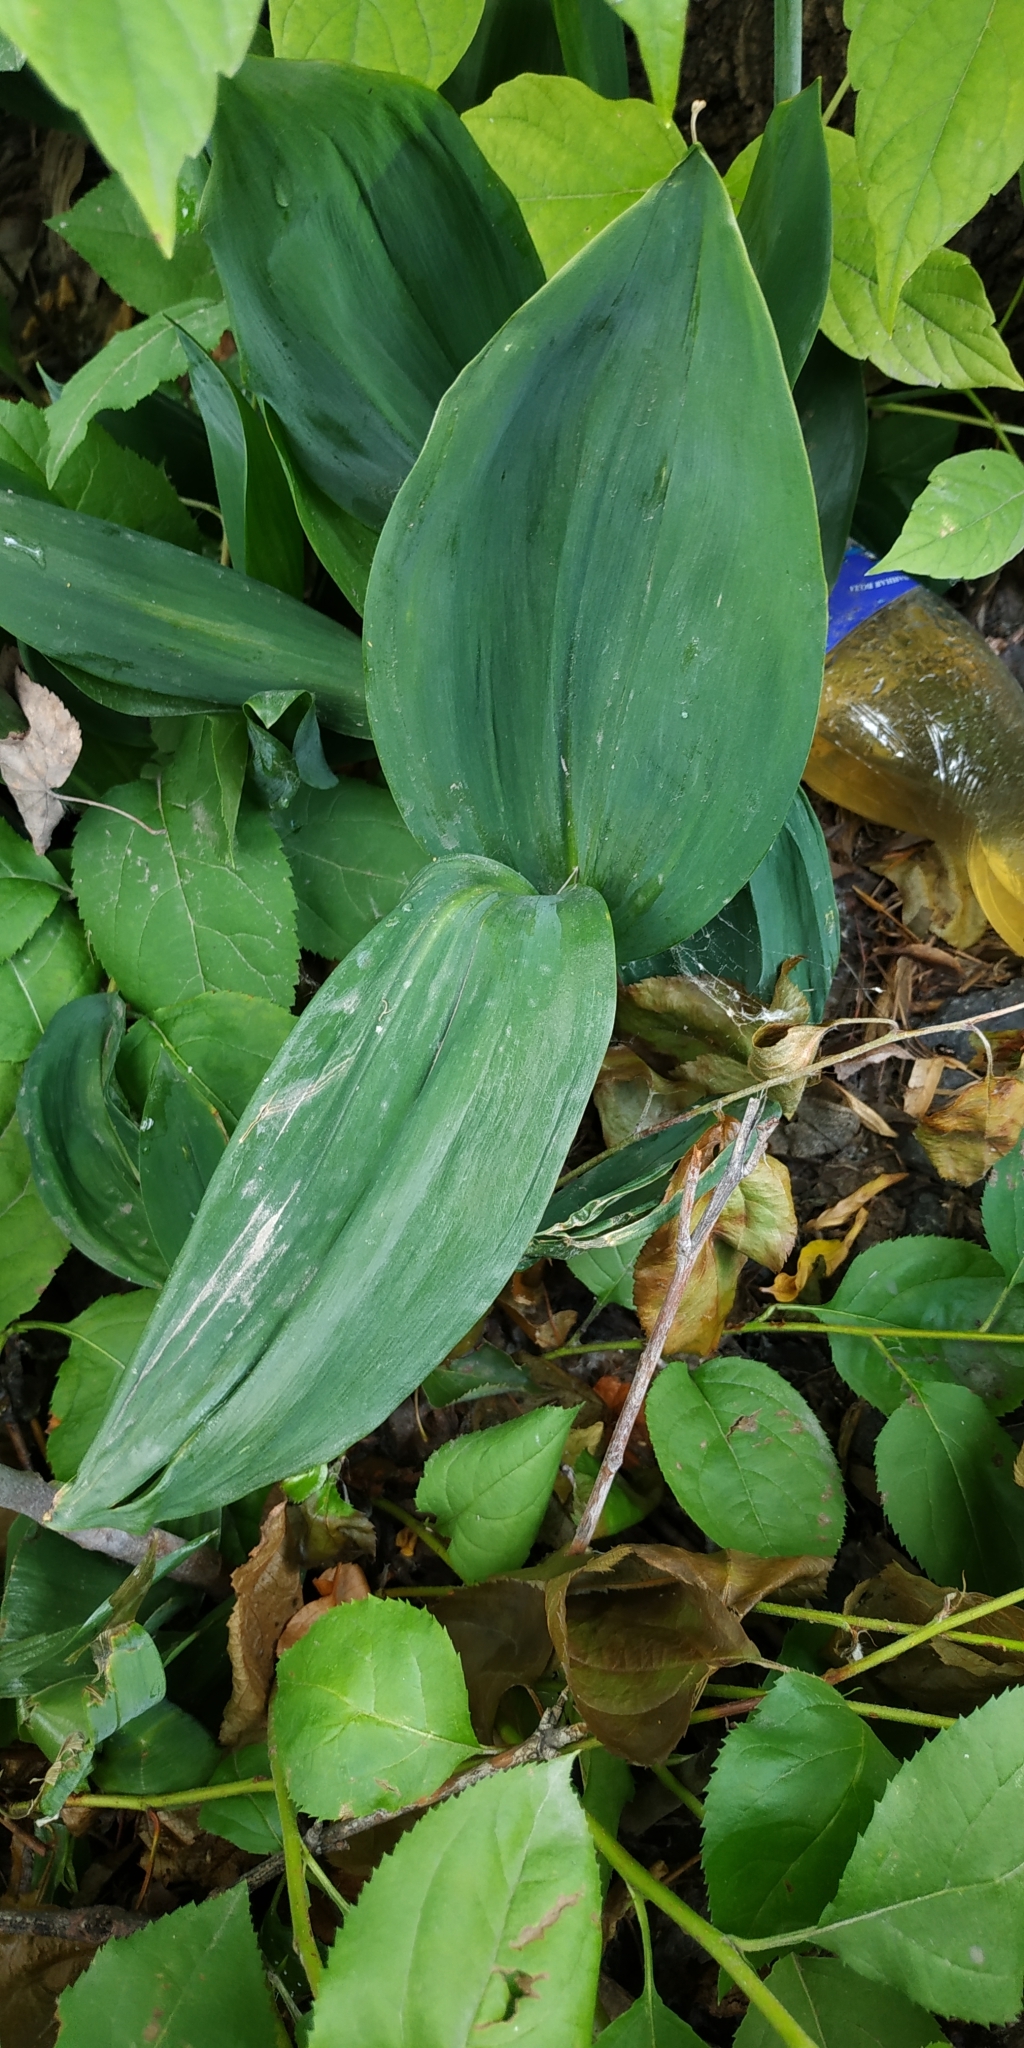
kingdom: Plantae
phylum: Tracheophyta
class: Liliopsida
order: Asparagales
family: Asparagaceae
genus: Convallaria
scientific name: Convallaria majalis
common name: Lily-of-the-valley
